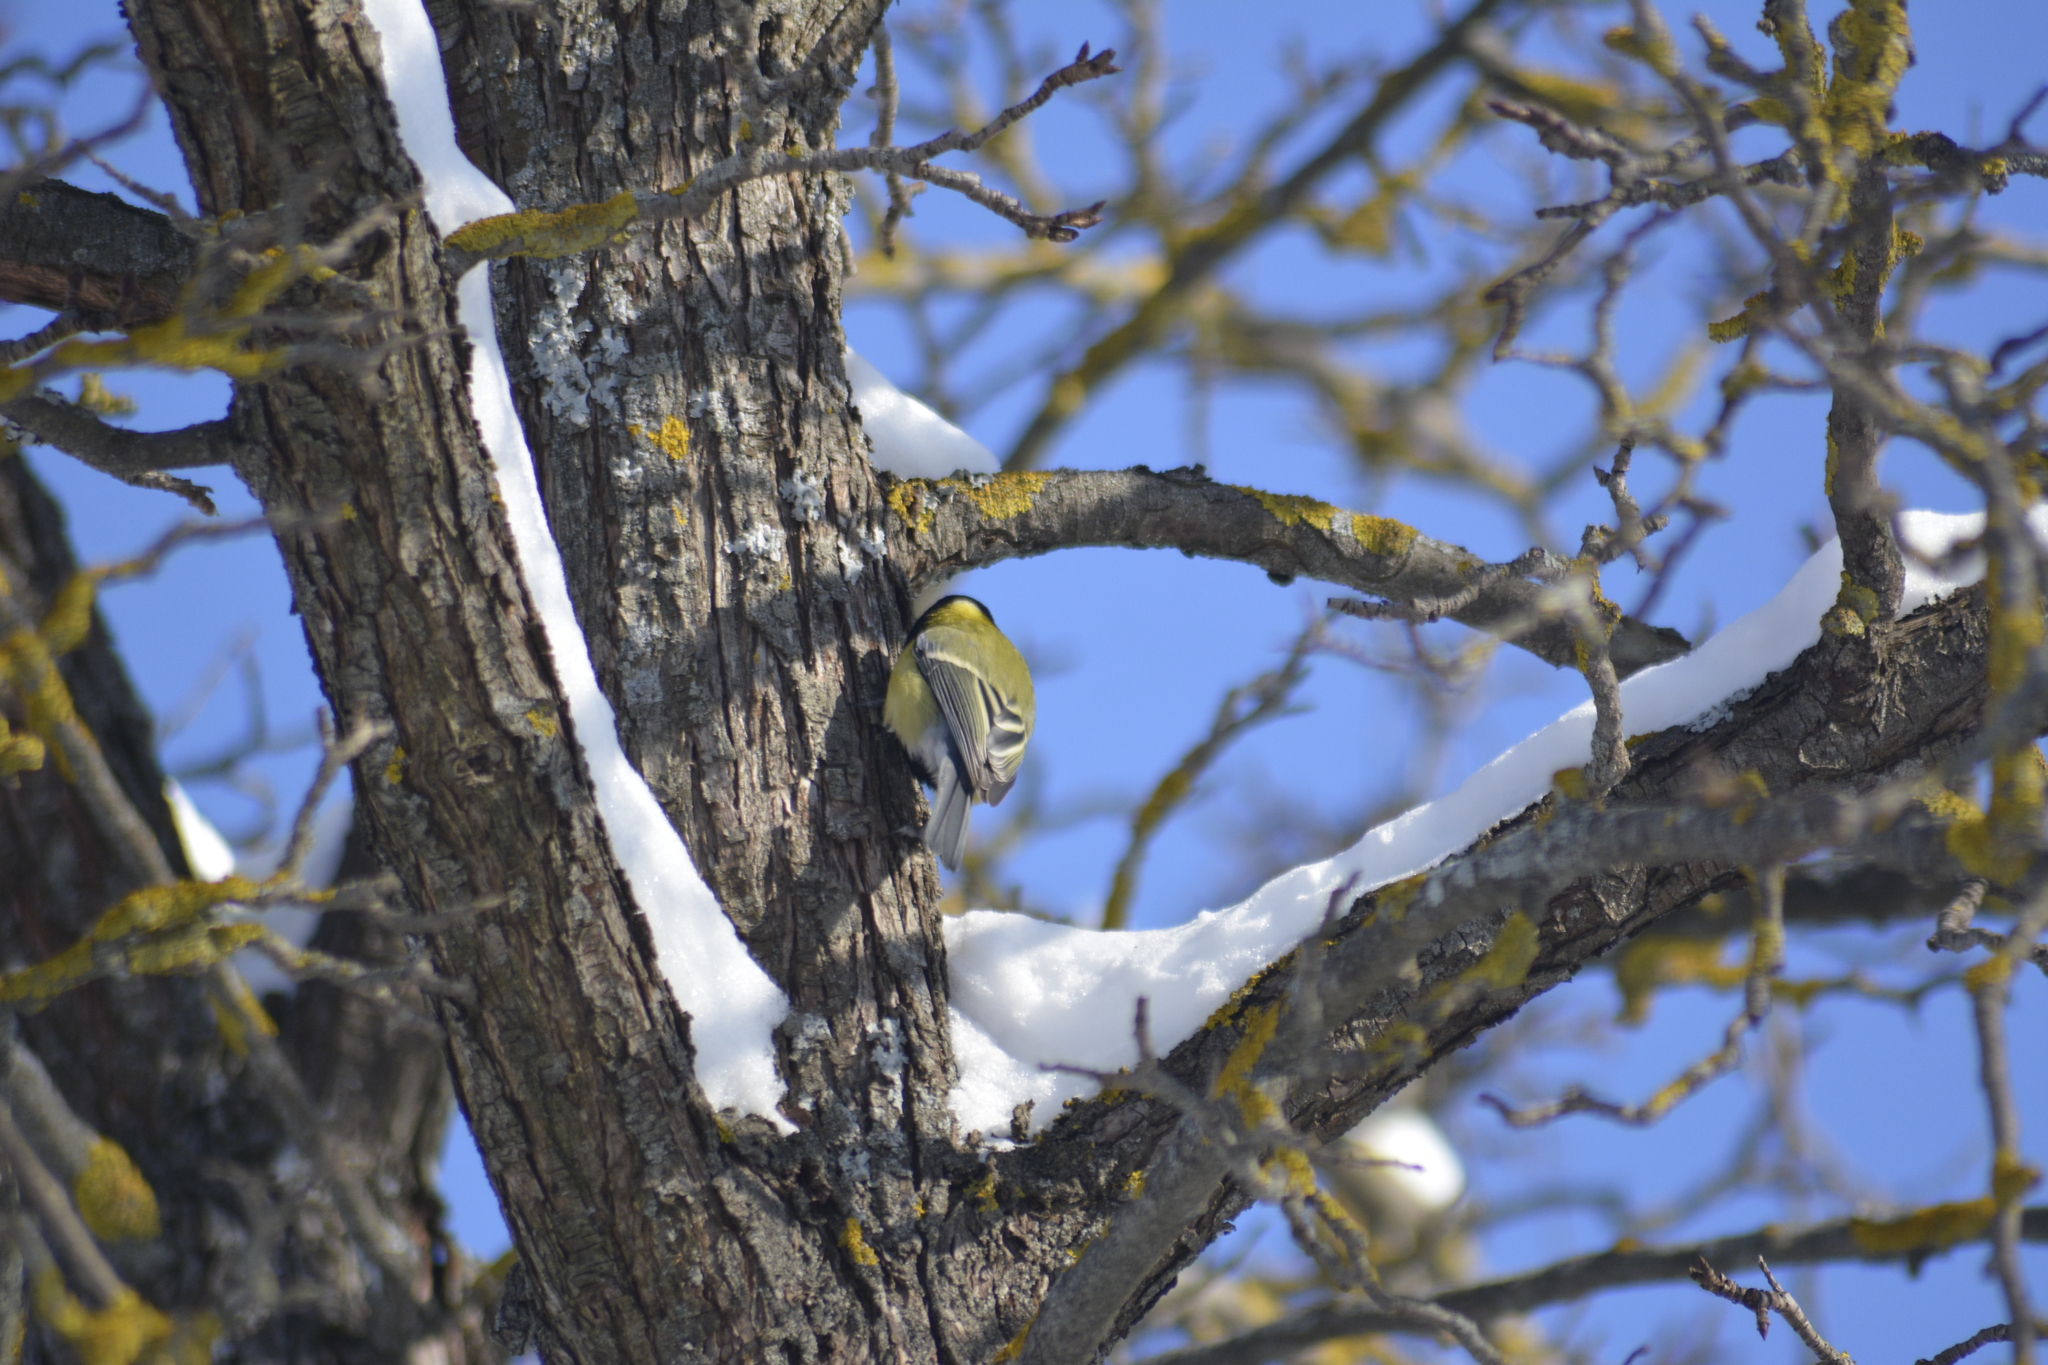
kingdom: Animalia
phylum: Chordata
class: Aves
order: Passeriformes
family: Paridae
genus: Parus
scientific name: Parus major
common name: Great tit
